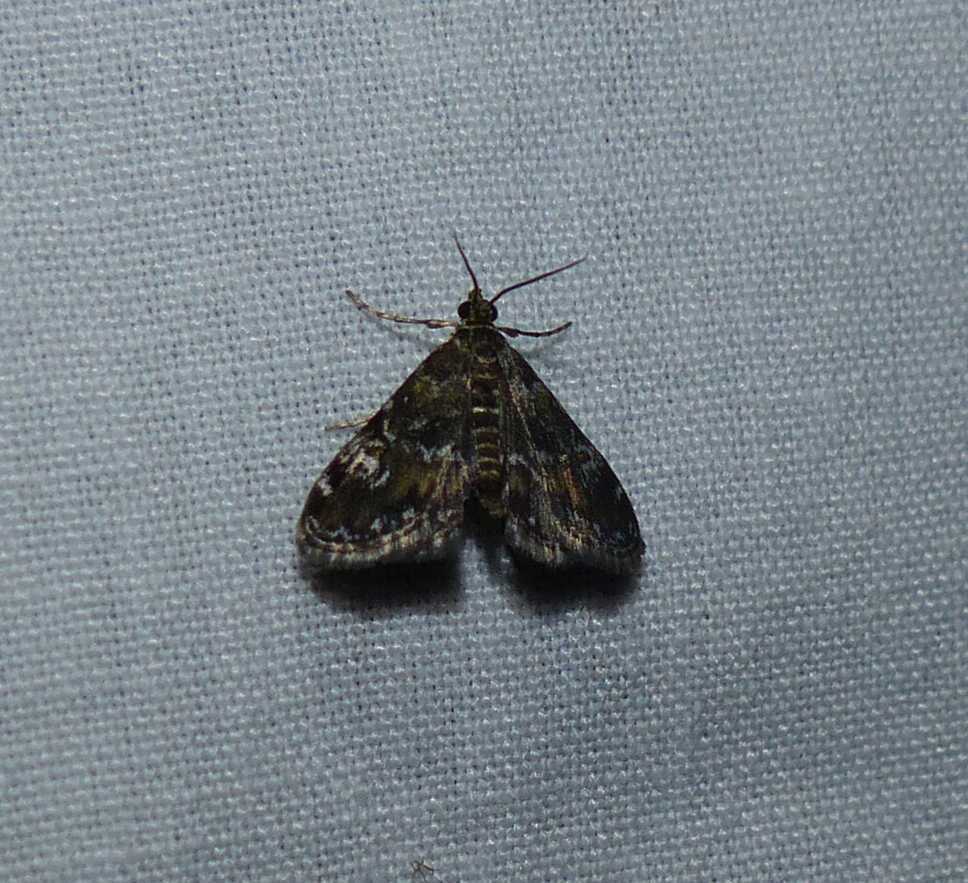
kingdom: Animalia
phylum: Arthropoda
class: Insecta
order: Lepidoptera
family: Crambidae
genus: Elophila
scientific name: Elophila obliteralis
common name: Waterlily leafcutter moth
